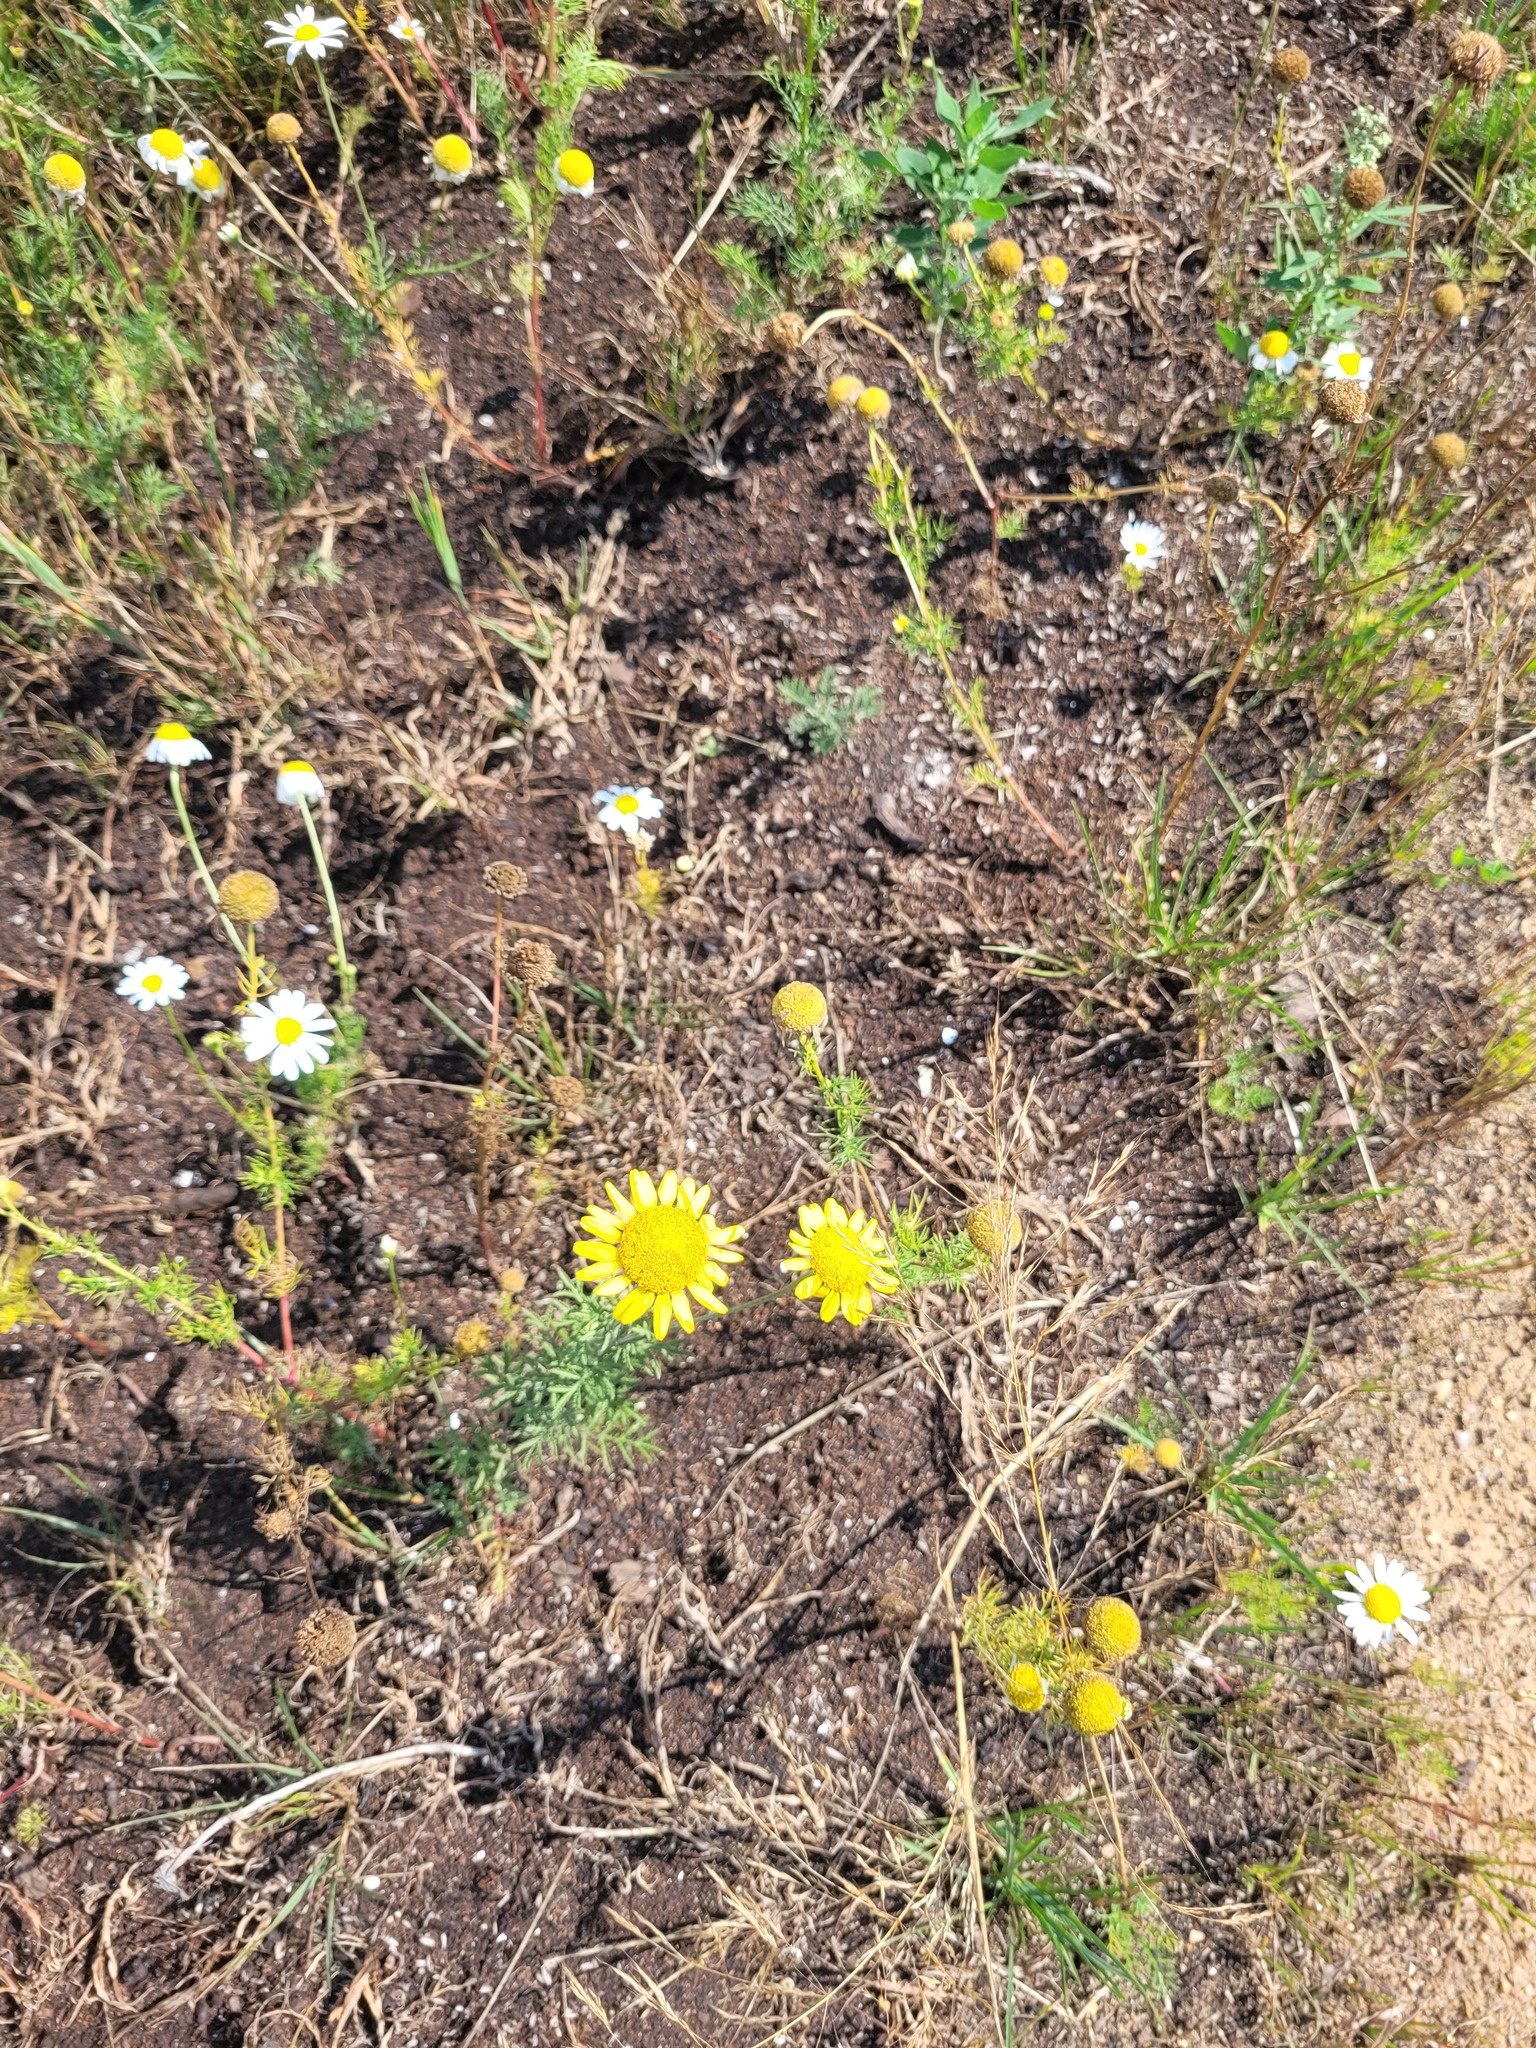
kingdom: Plantae
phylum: Tracheophyta
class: Magnoliopsida
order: Asterales
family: Asteraceae
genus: Cota
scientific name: Cota tinctoria
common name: Golden chamomile
